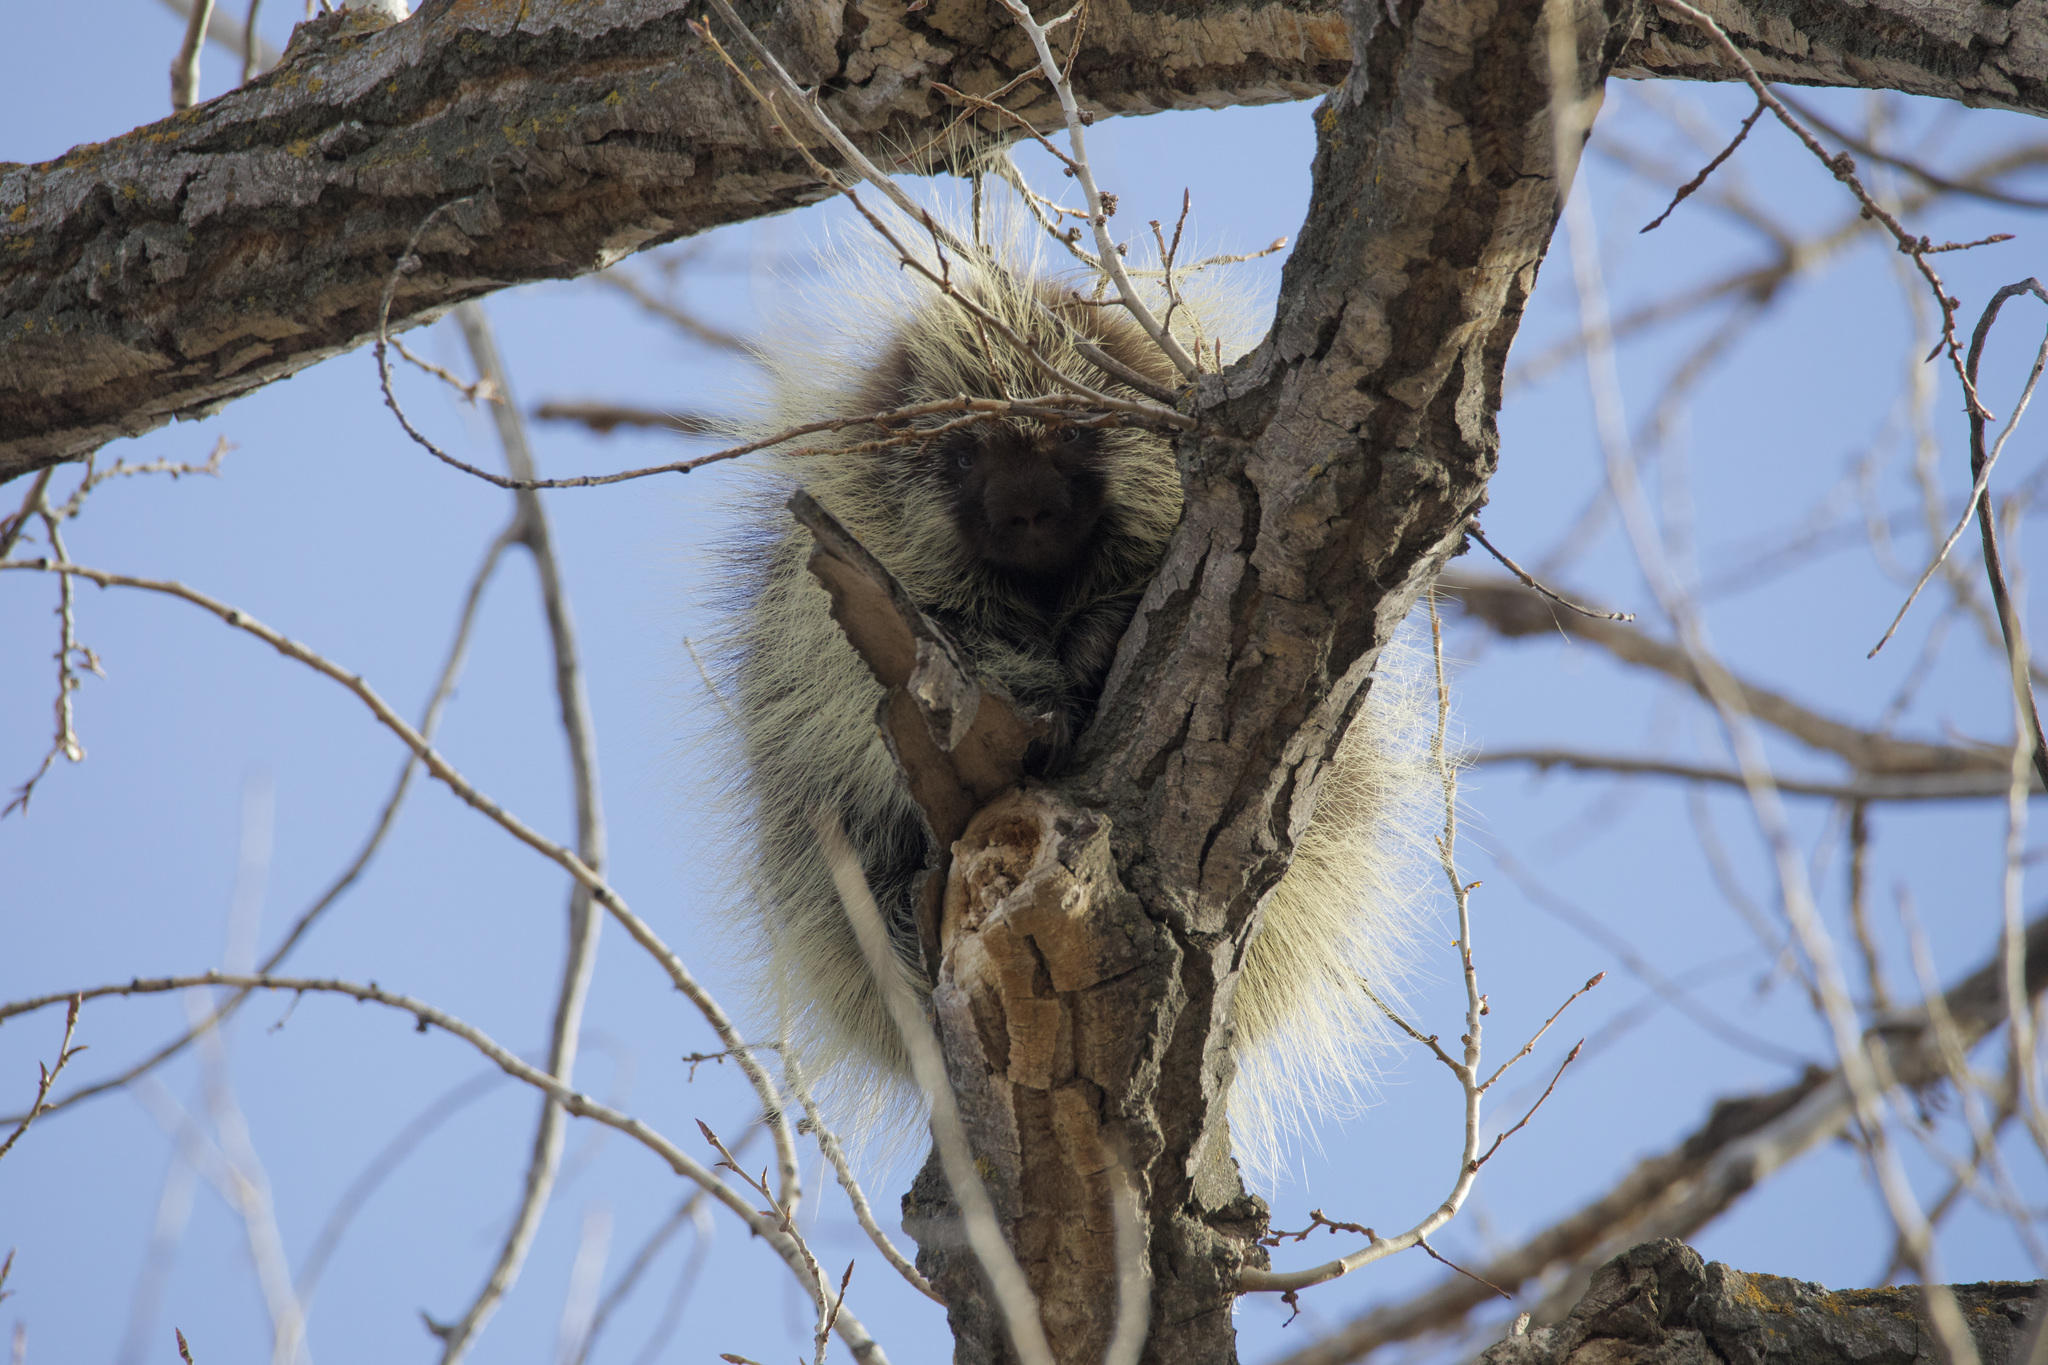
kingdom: Animalia
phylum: Chordata
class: Mammalia
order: Rodentia
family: Erethizontidae
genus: Erethizon
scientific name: Erethizon dorsatus
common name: North american porcupine
